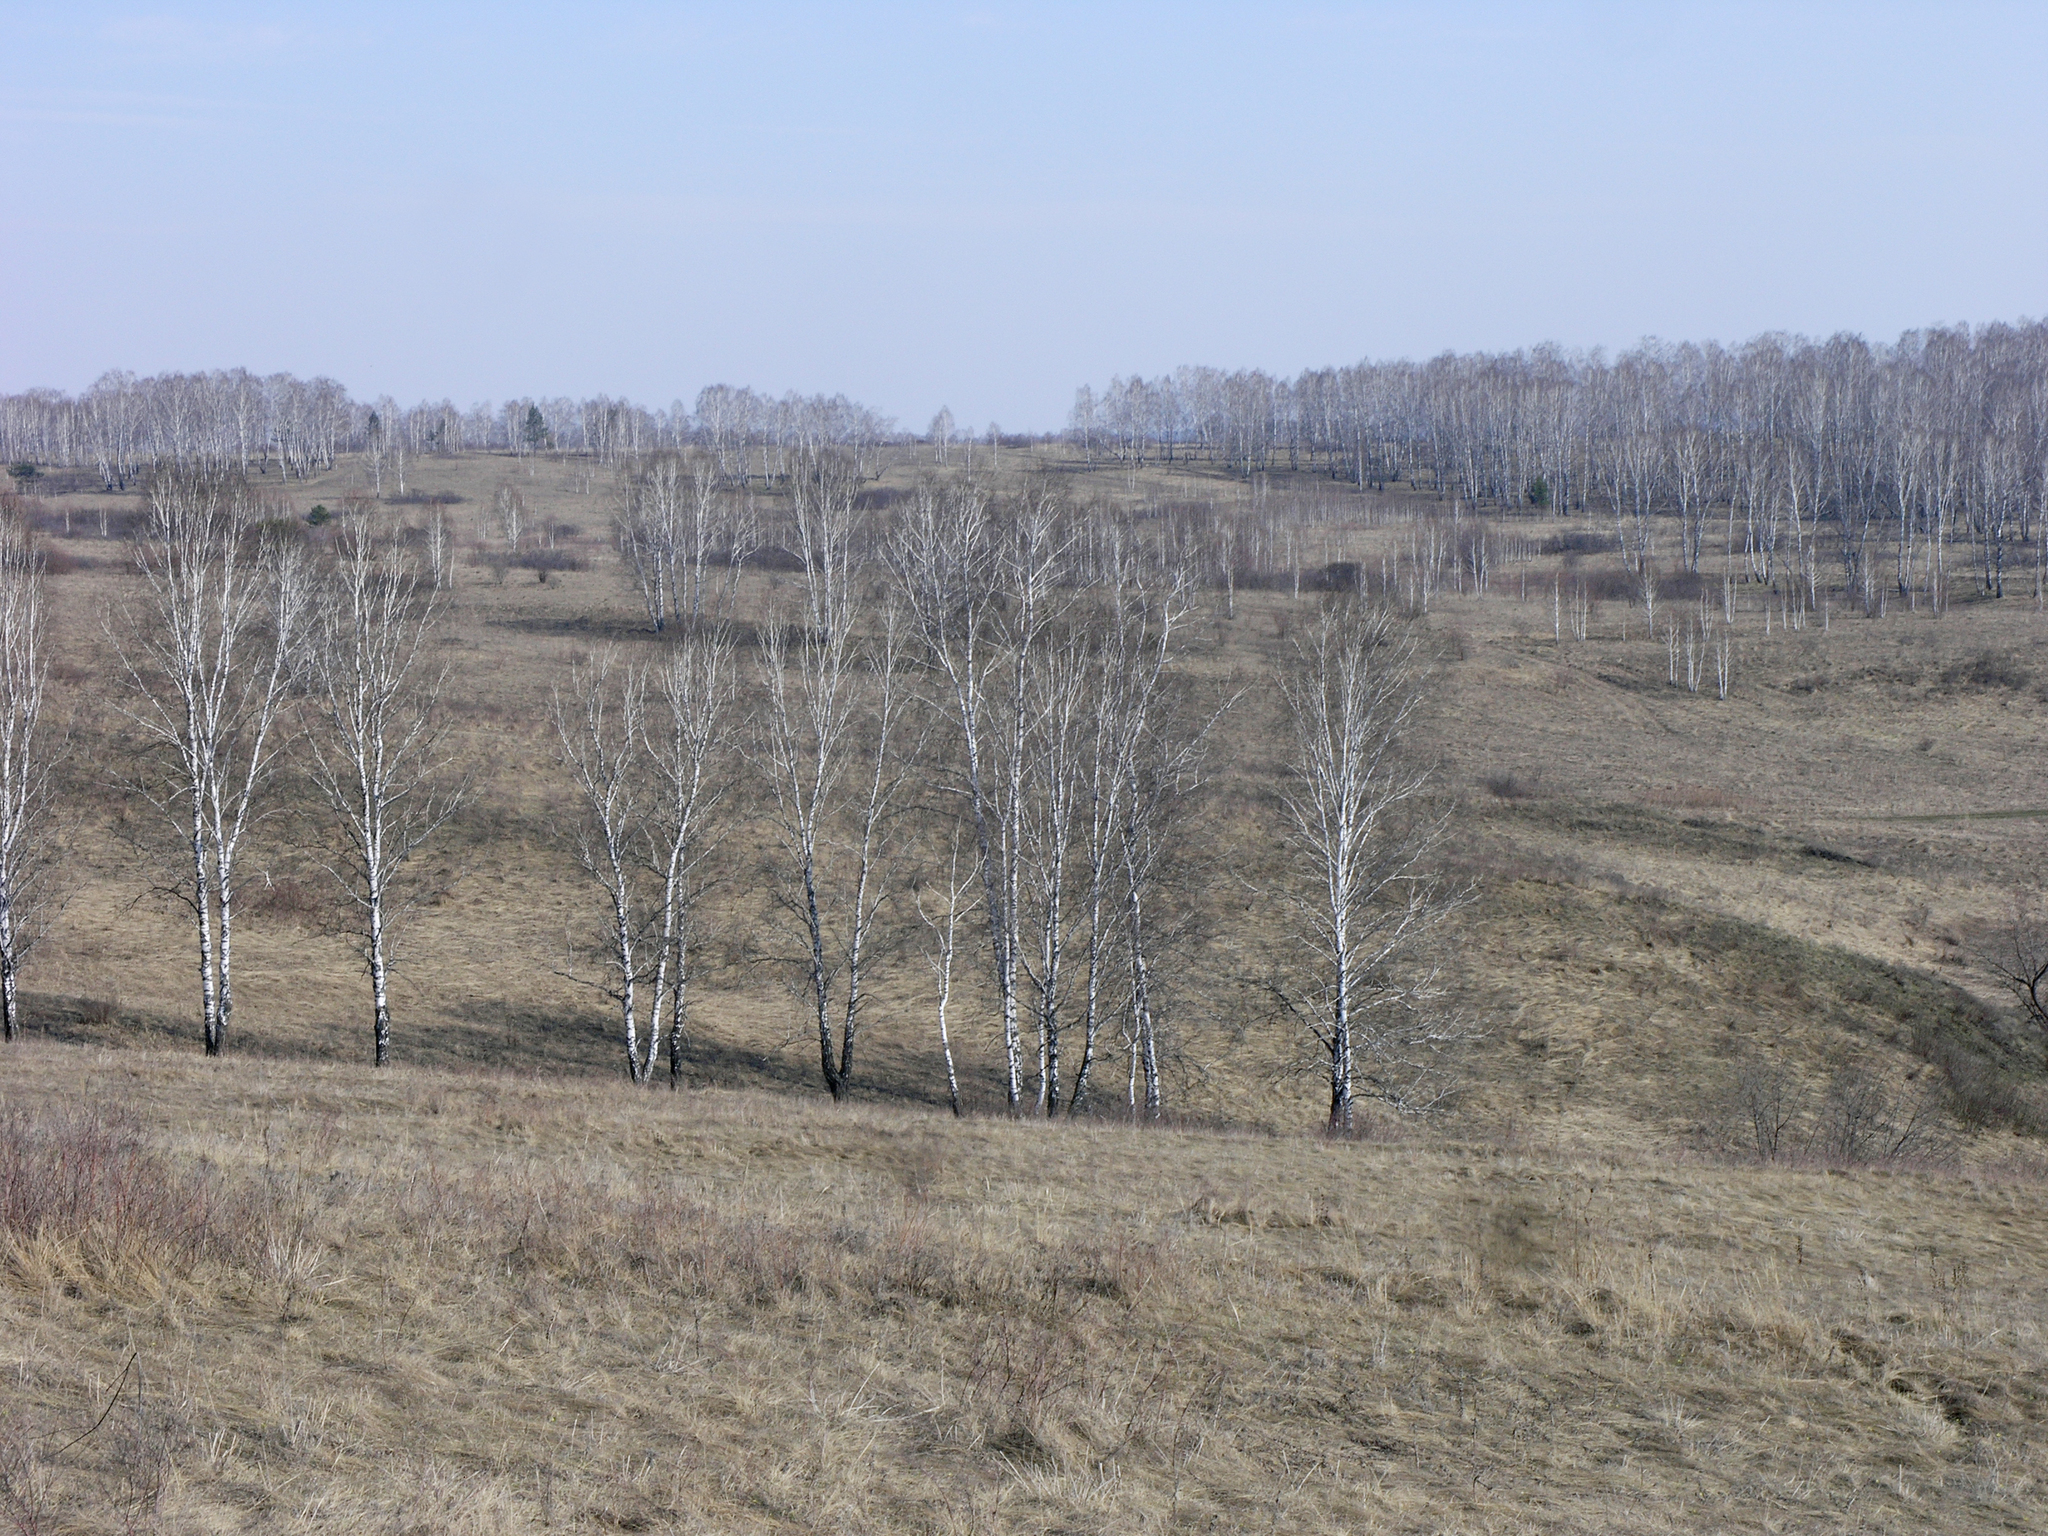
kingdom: Animalia
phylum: Chordata
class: Aves
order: Gruiformes
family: Rallidae
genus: Porzana
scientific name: Porzana pusilla
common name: Baillon's crake
